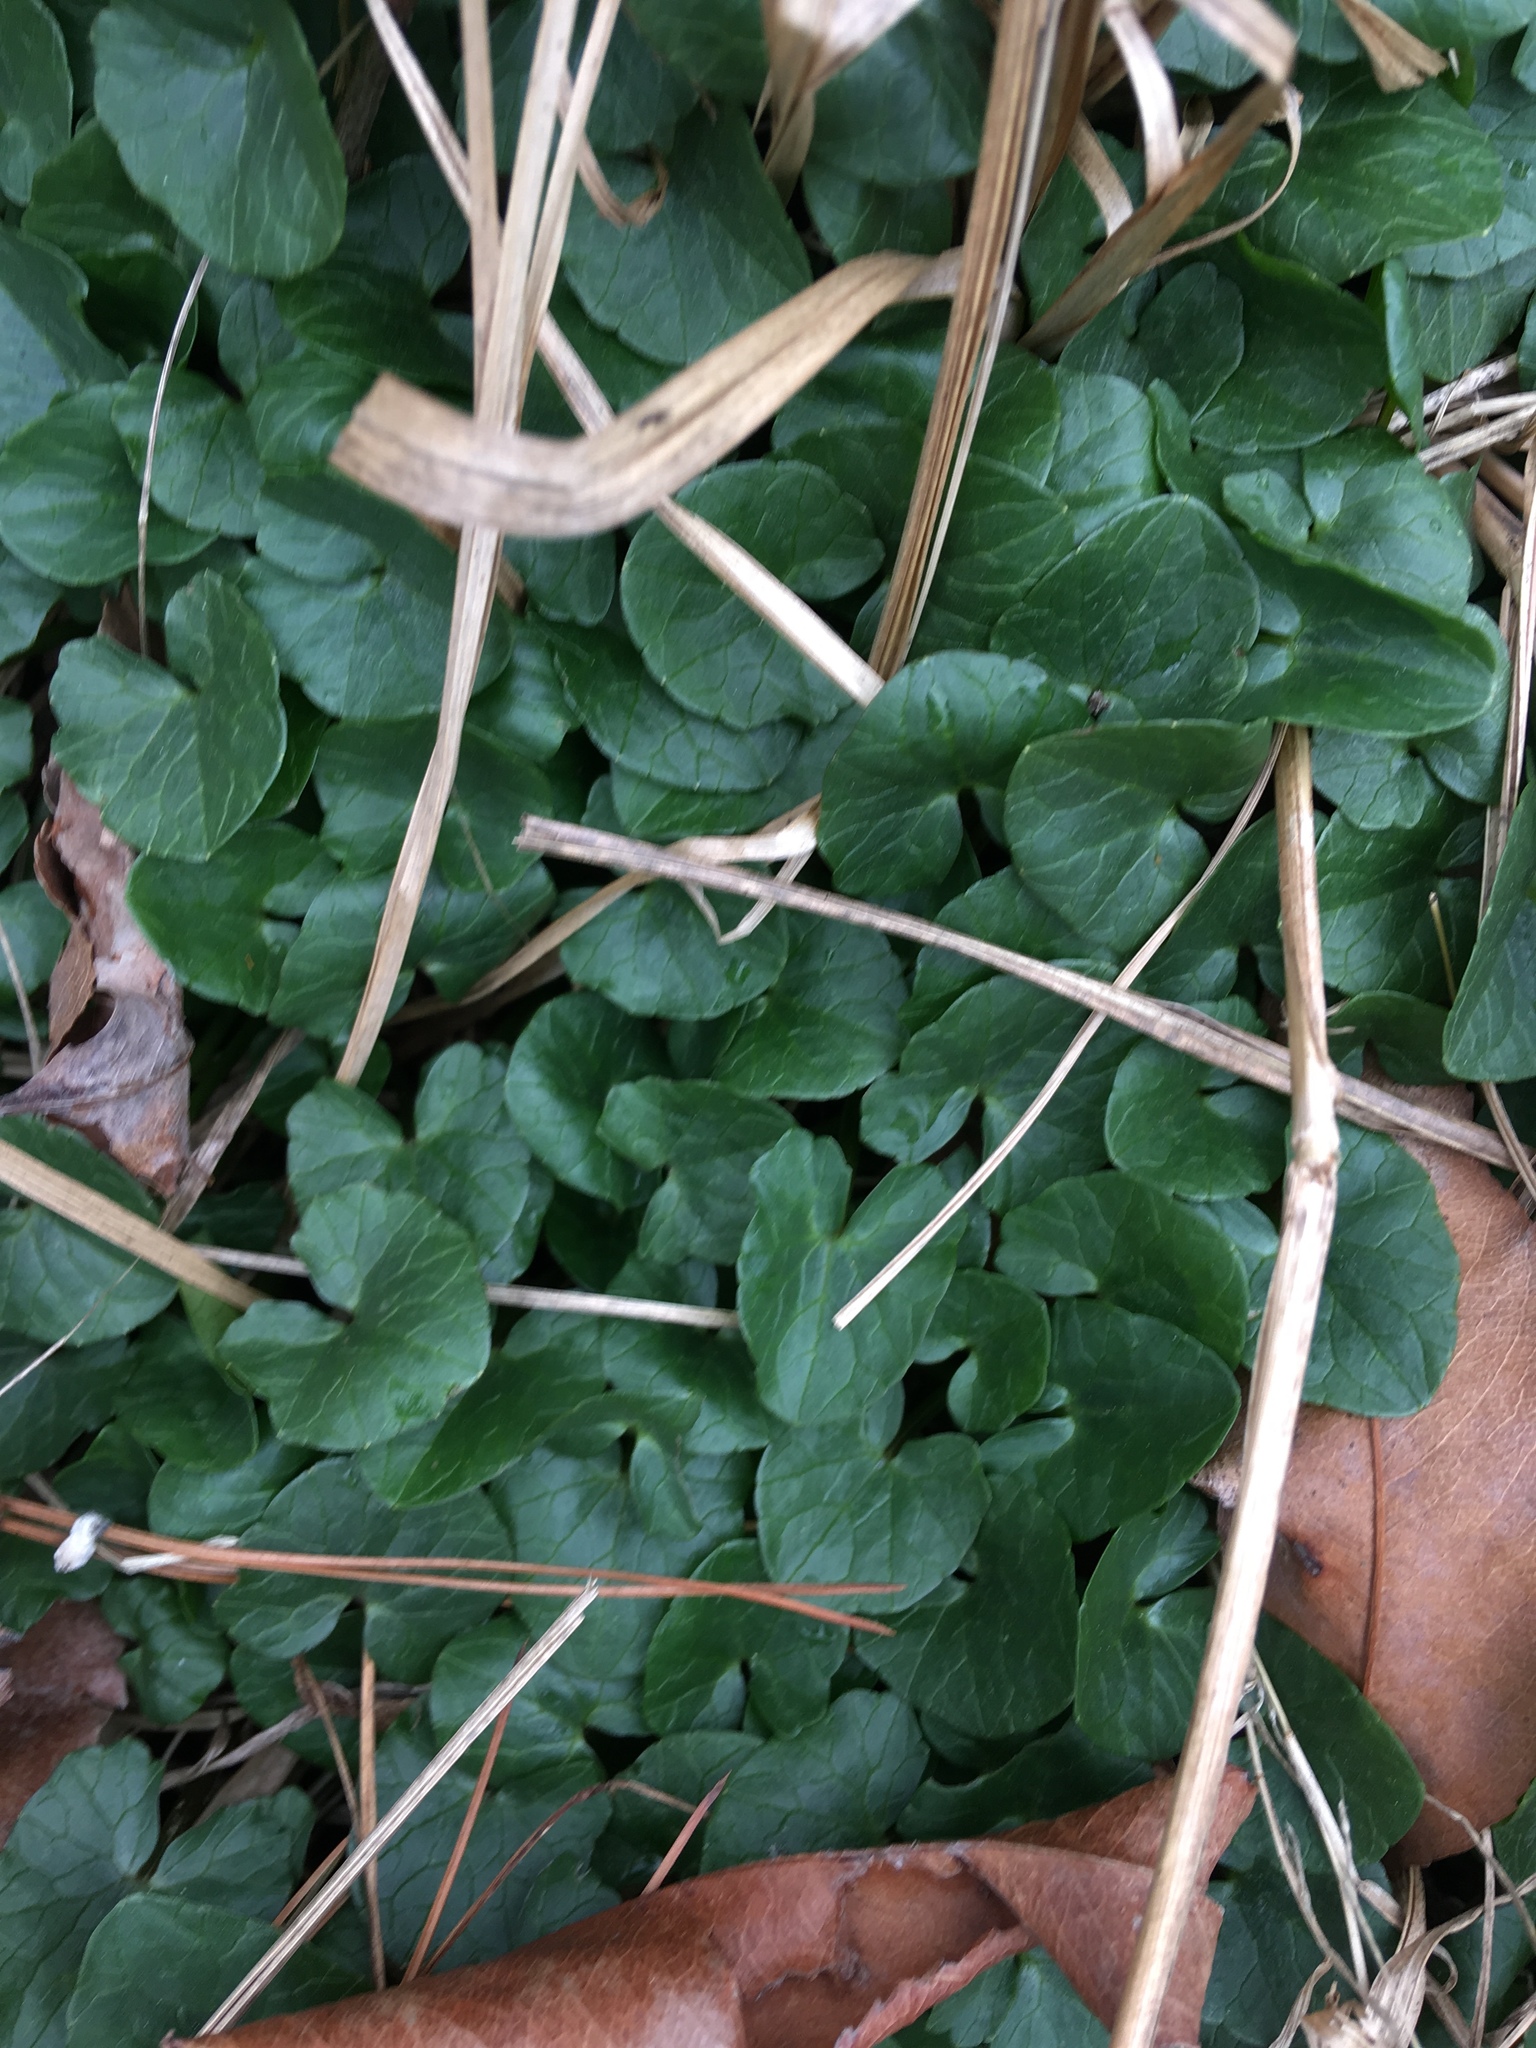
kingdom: Plantae
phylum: Tracheophyta
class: Magnoliopsida
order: Ranunculales
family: Ranunculaceae
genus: Ficaria
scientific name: Ficaria verna
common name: Lesser celandine
